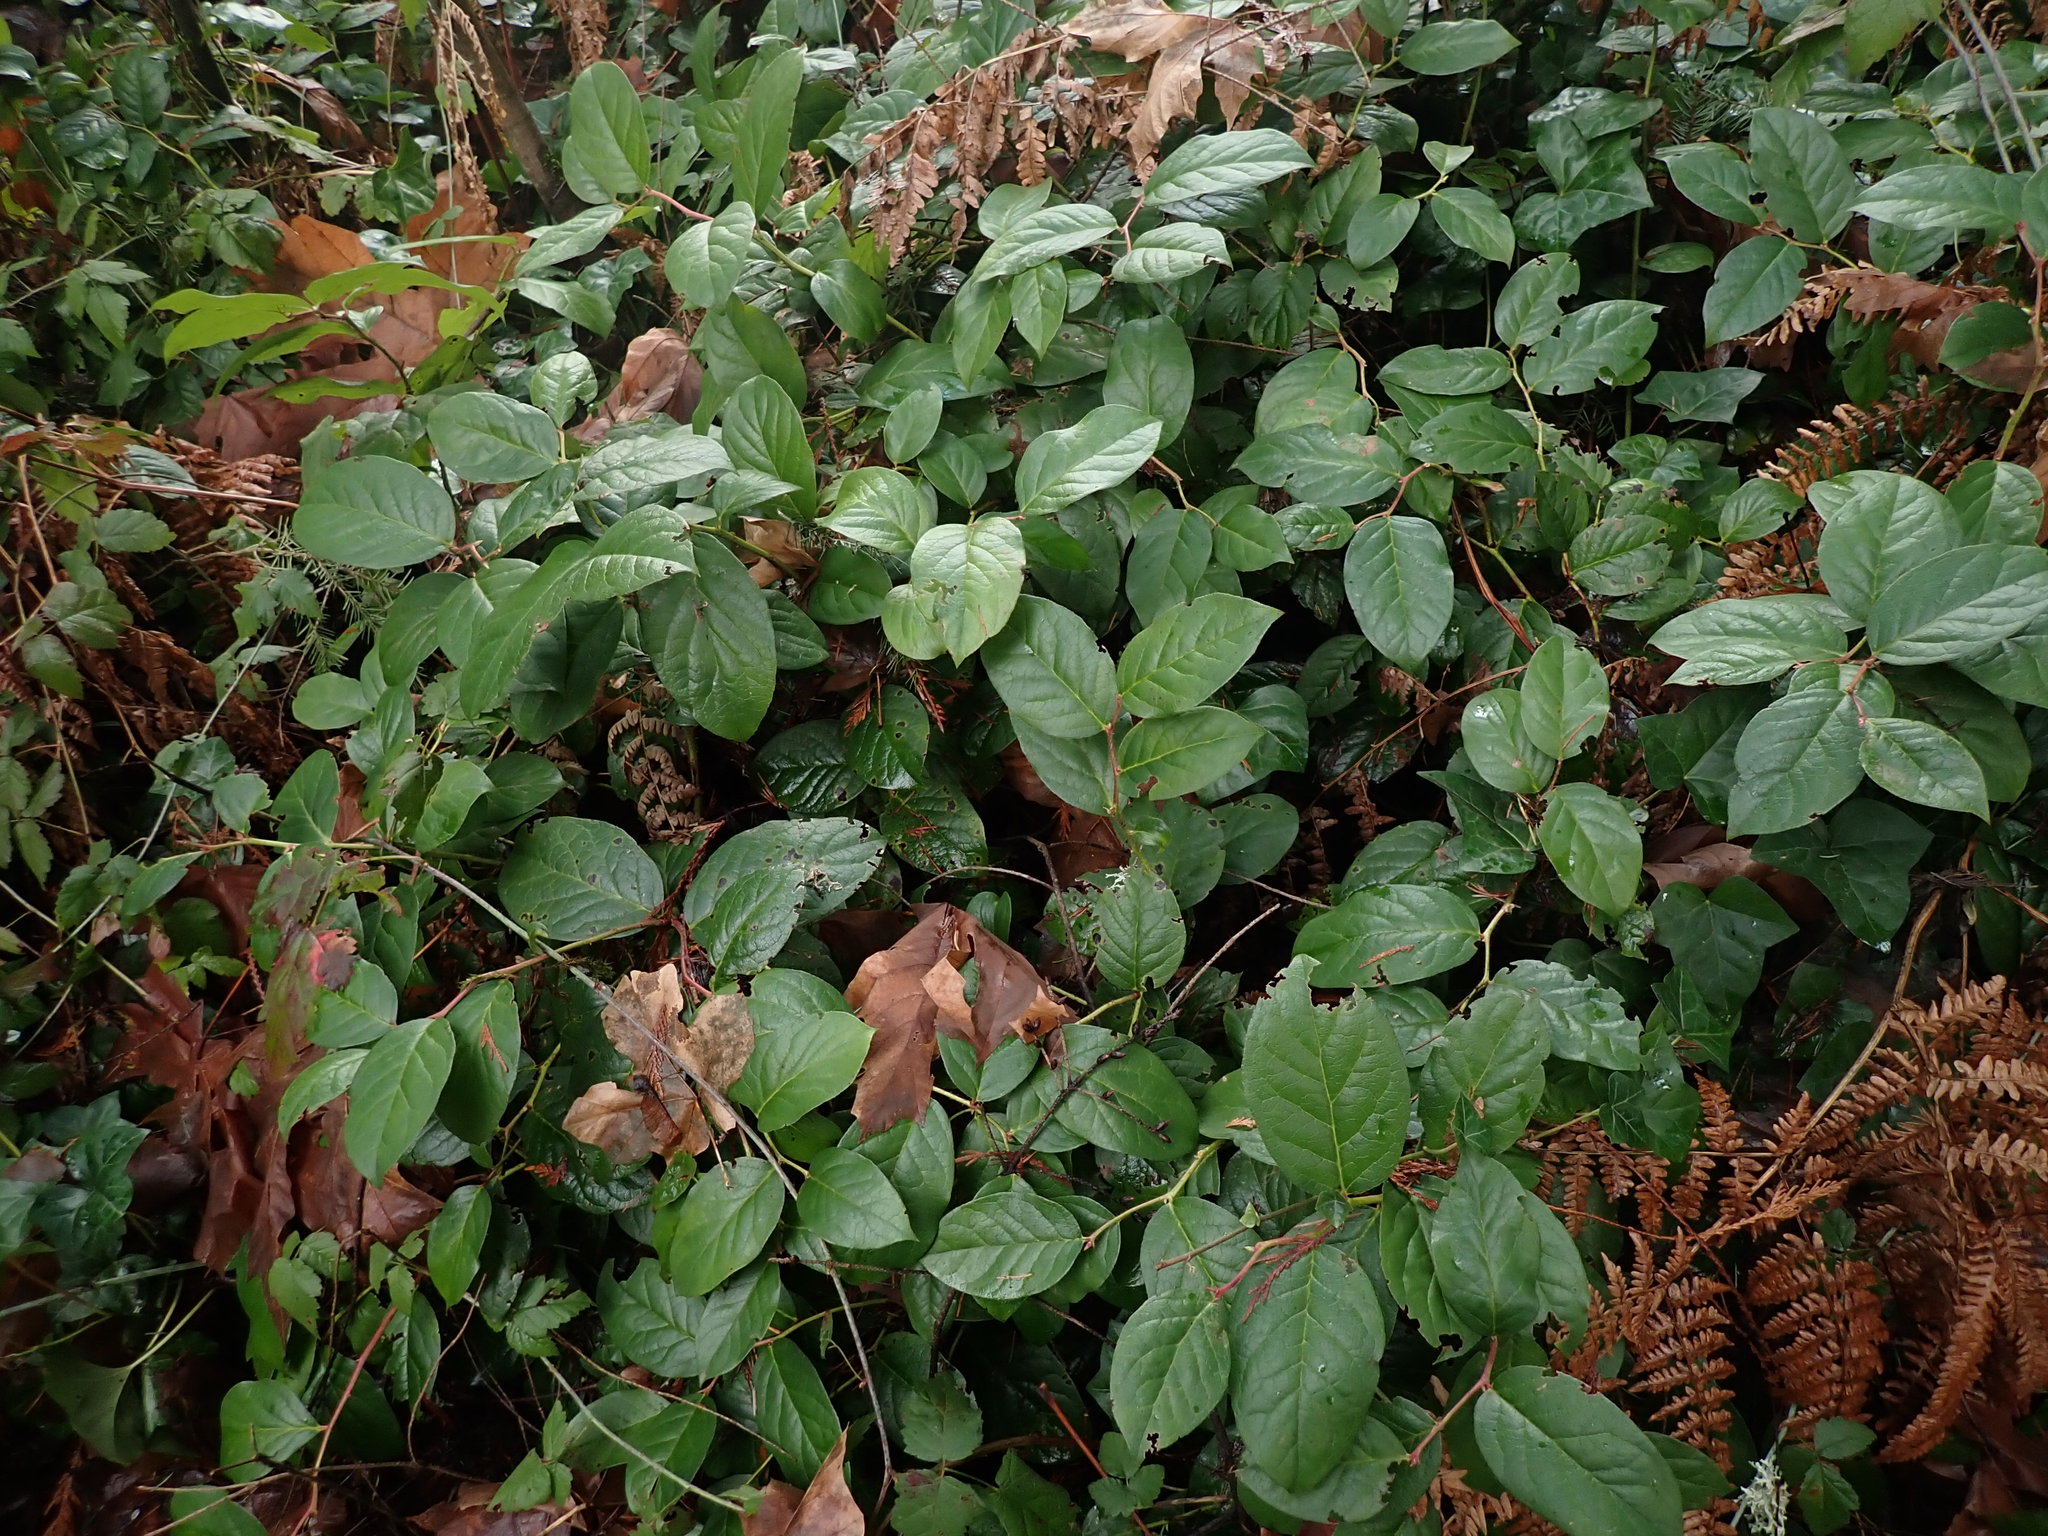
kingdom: Plantae
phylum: Tracheophyta
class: Magnoliopsida
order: Ericales
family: Ericaceae
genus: Gaultheria
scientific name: Gaultheria shallon
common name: Shallon
